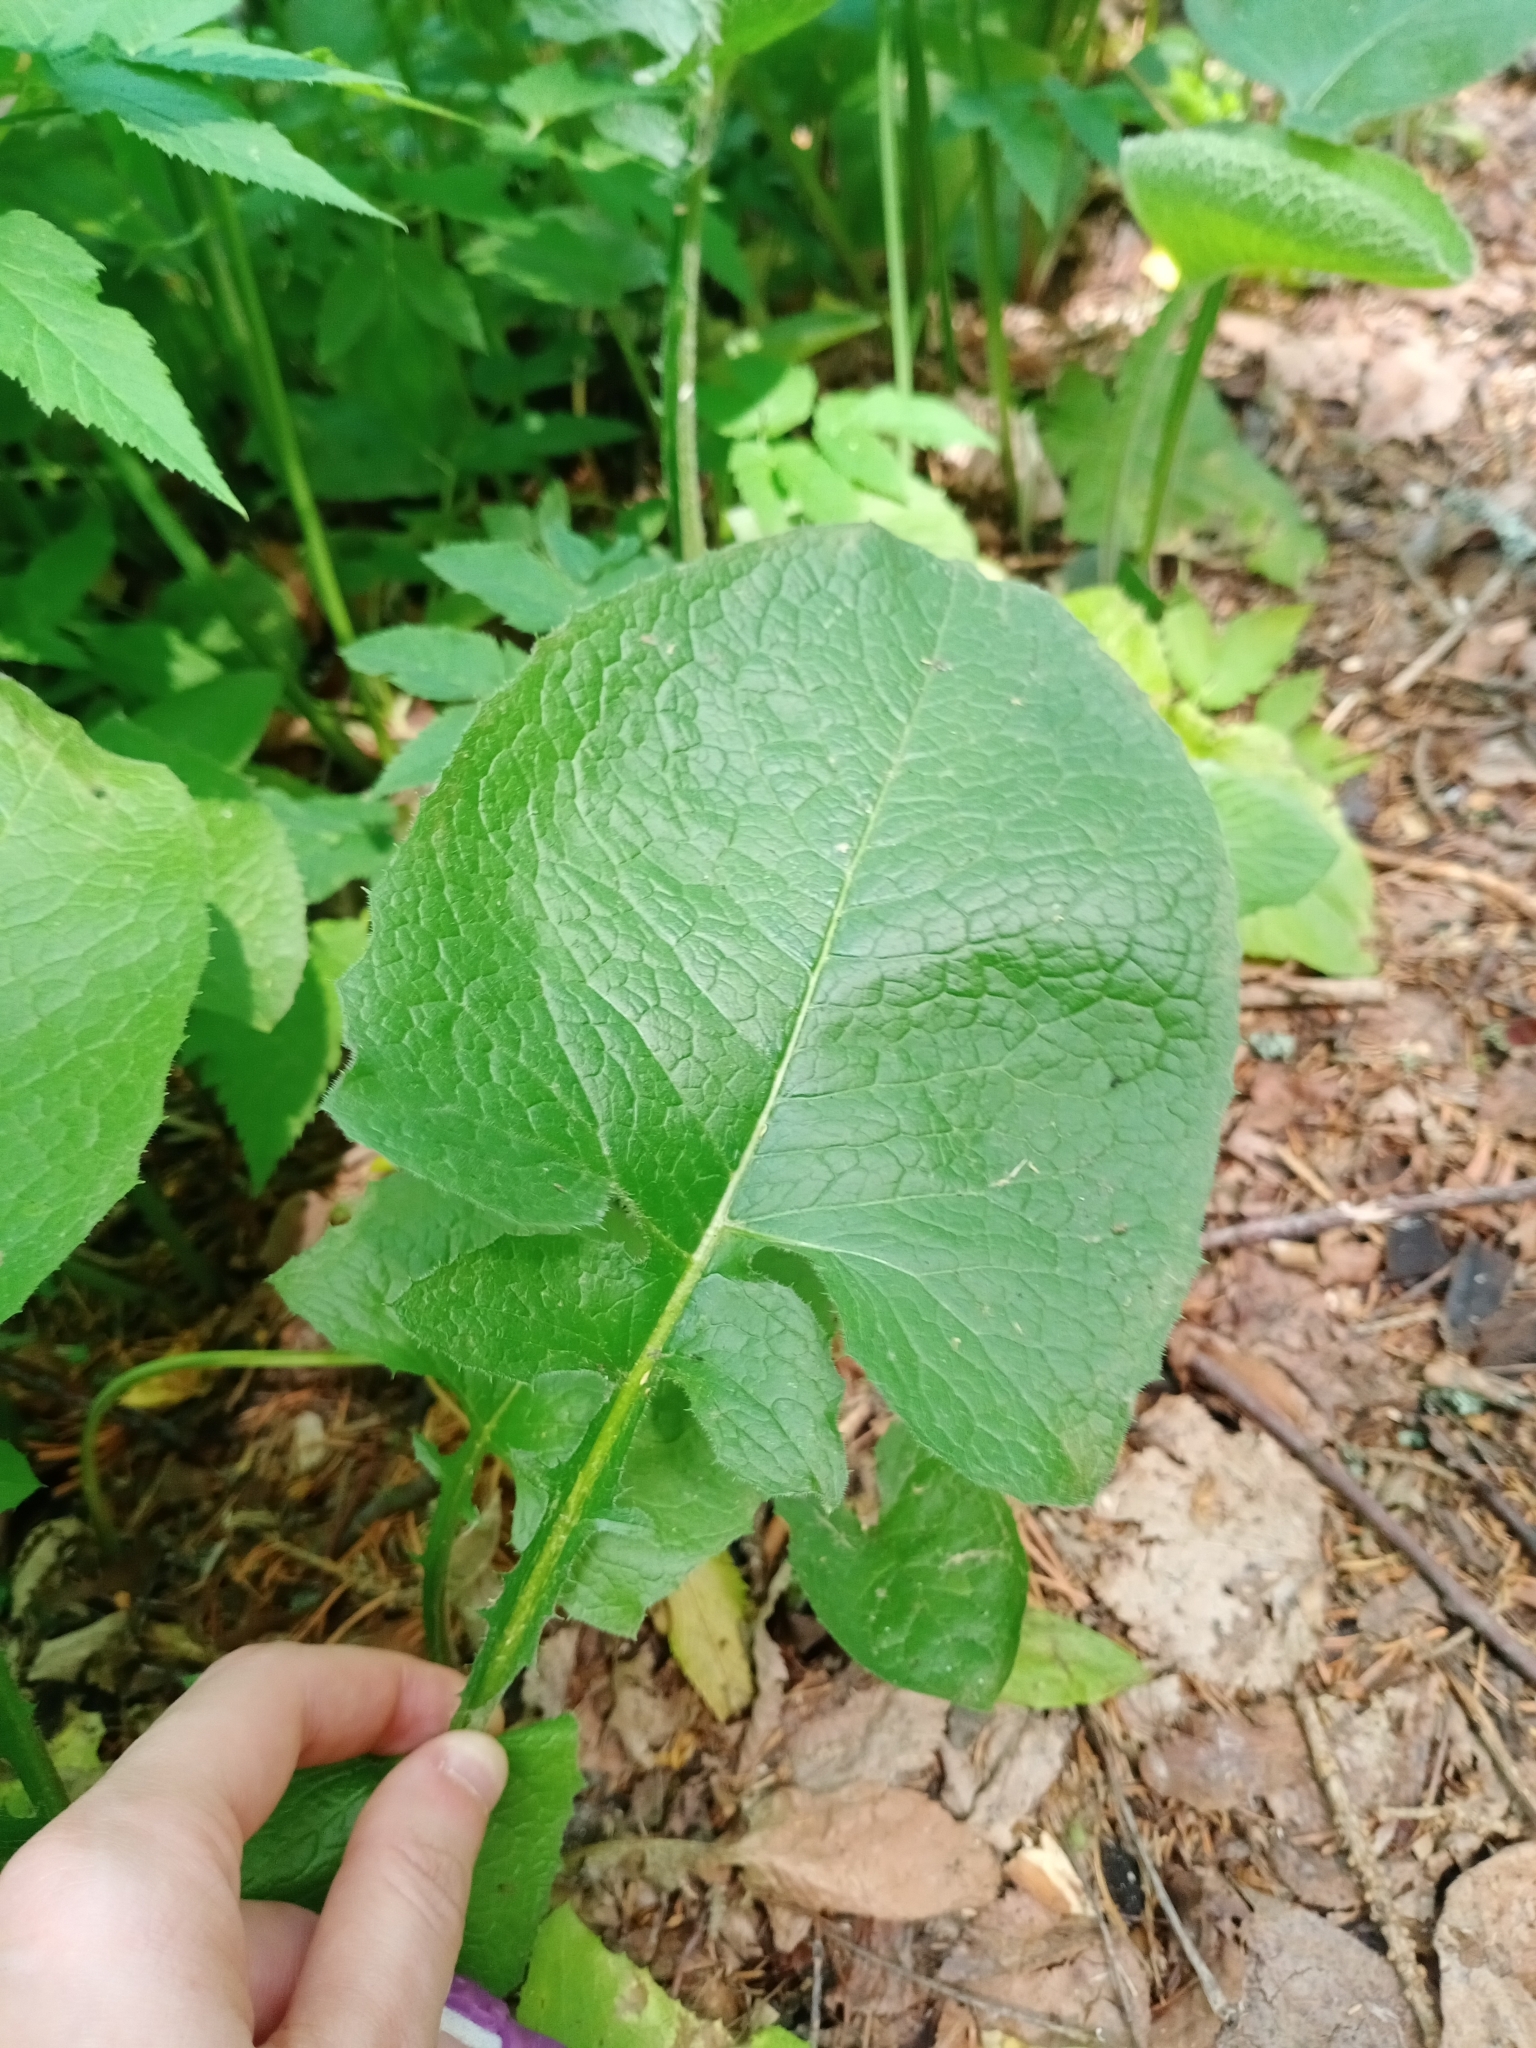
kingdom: Plantae
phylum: Tracheophyta
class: Magnoliopsida
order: Asterales
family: Asteraceae
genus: Lactuca
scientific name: Lactuca macrophylla
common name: Common blue-sow-thistle
